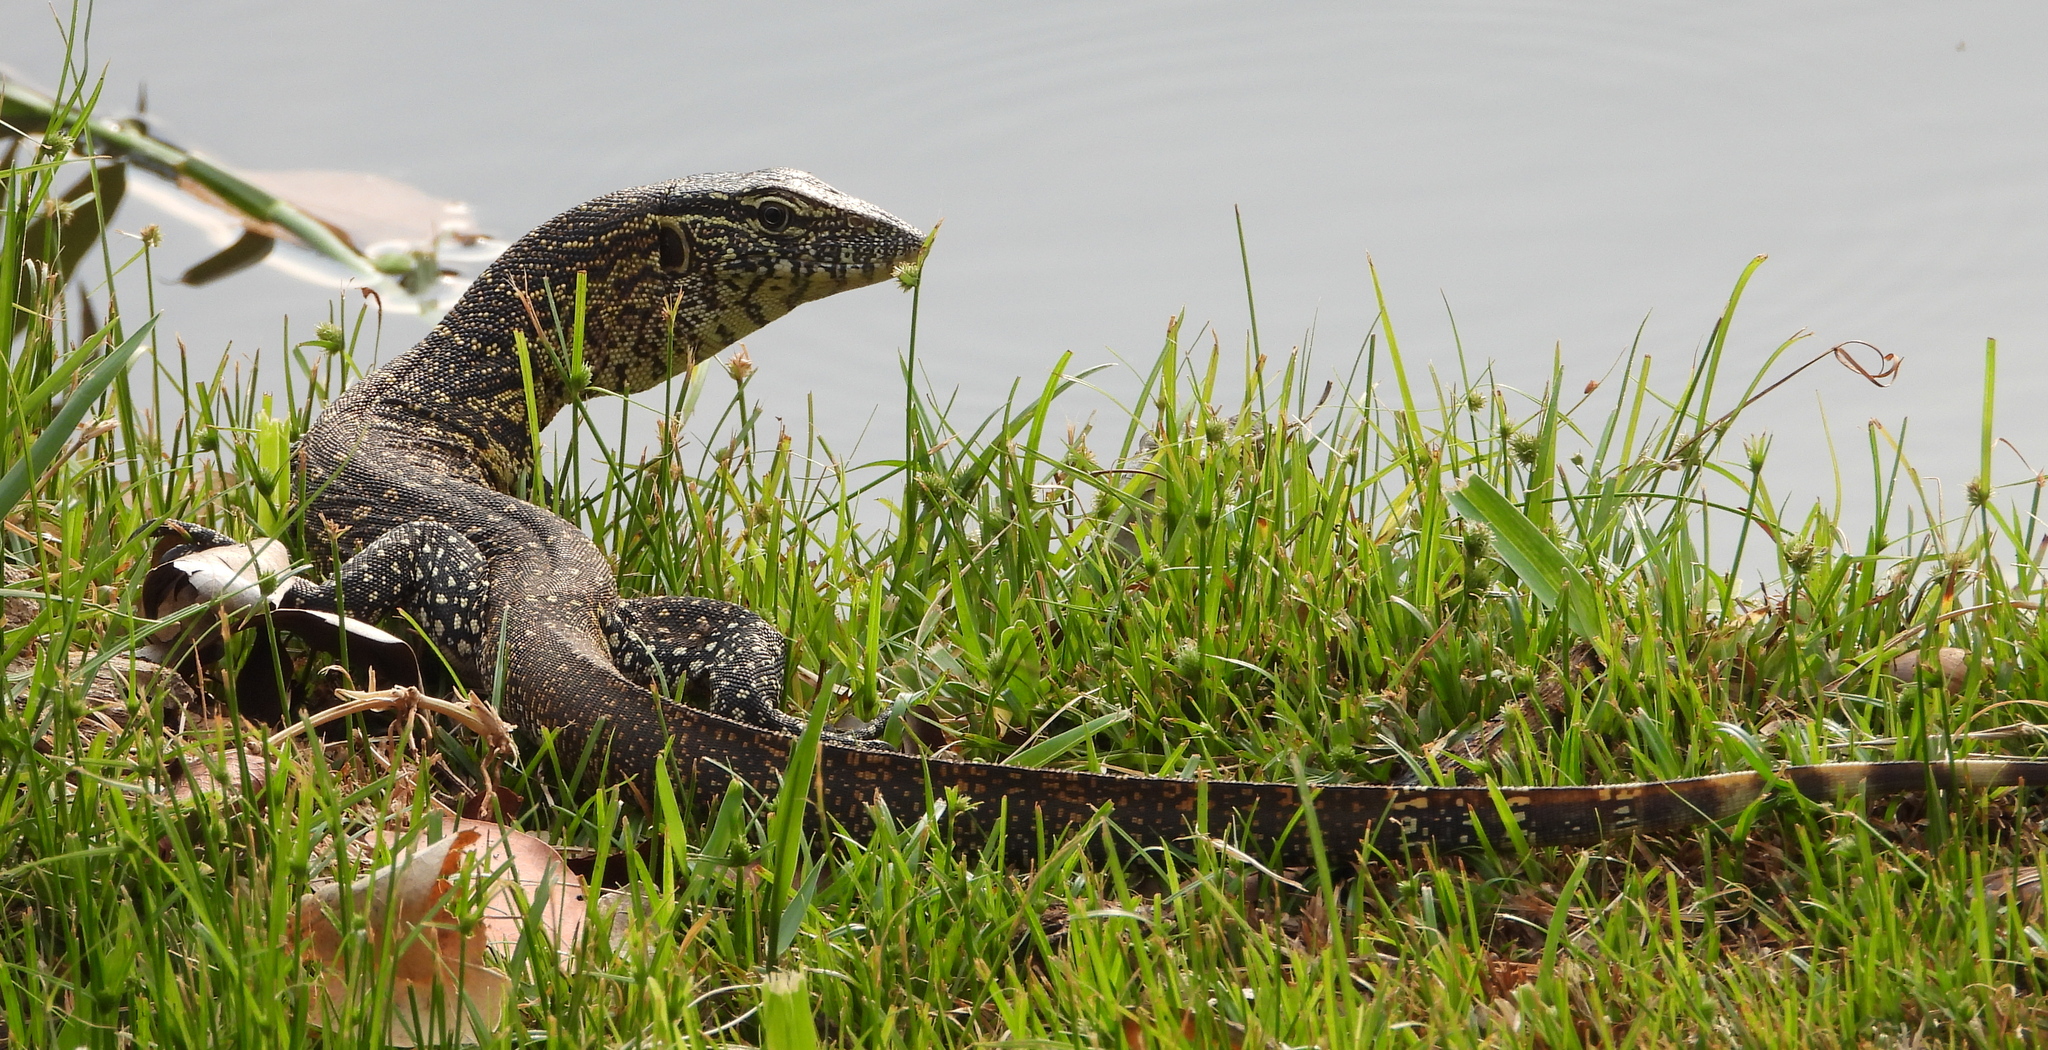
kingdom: Animalia
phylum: Chordata
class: Squamata
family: Varanidae
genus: Varanus
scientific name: Varanus niloticus
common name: Nile monitor
